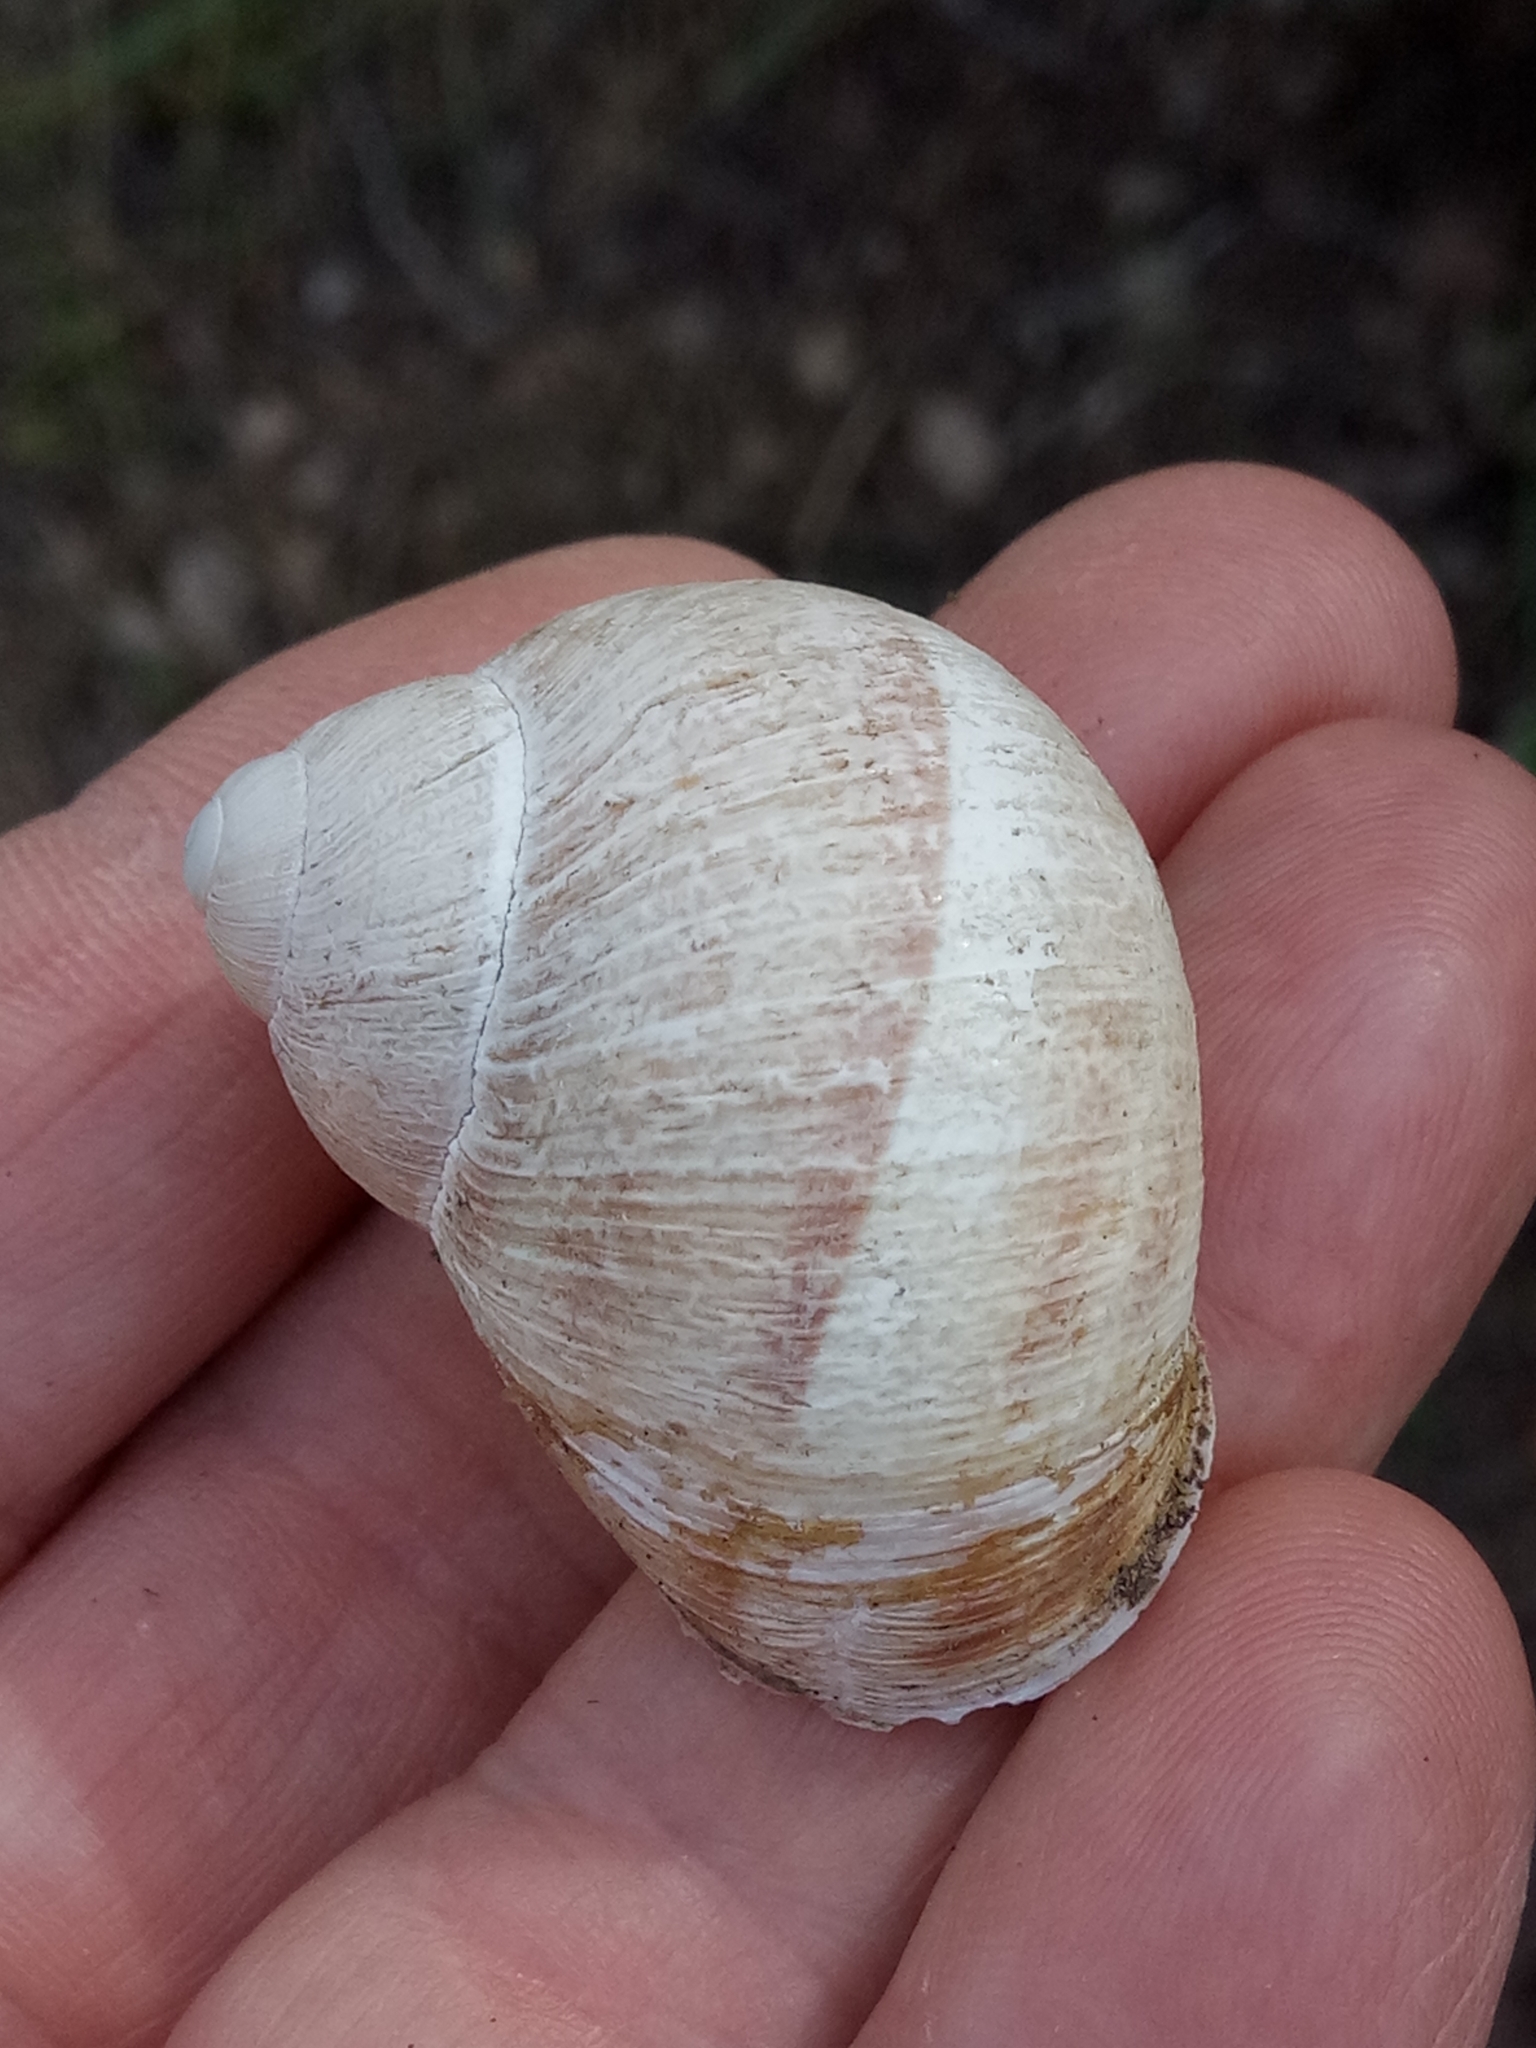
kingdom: Animalia
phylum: Mollusca
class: Gastropoda
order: Stylommatophora
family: Helicidae
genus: Cornu
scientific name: Cornu aspersum
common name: Brown garden snail
